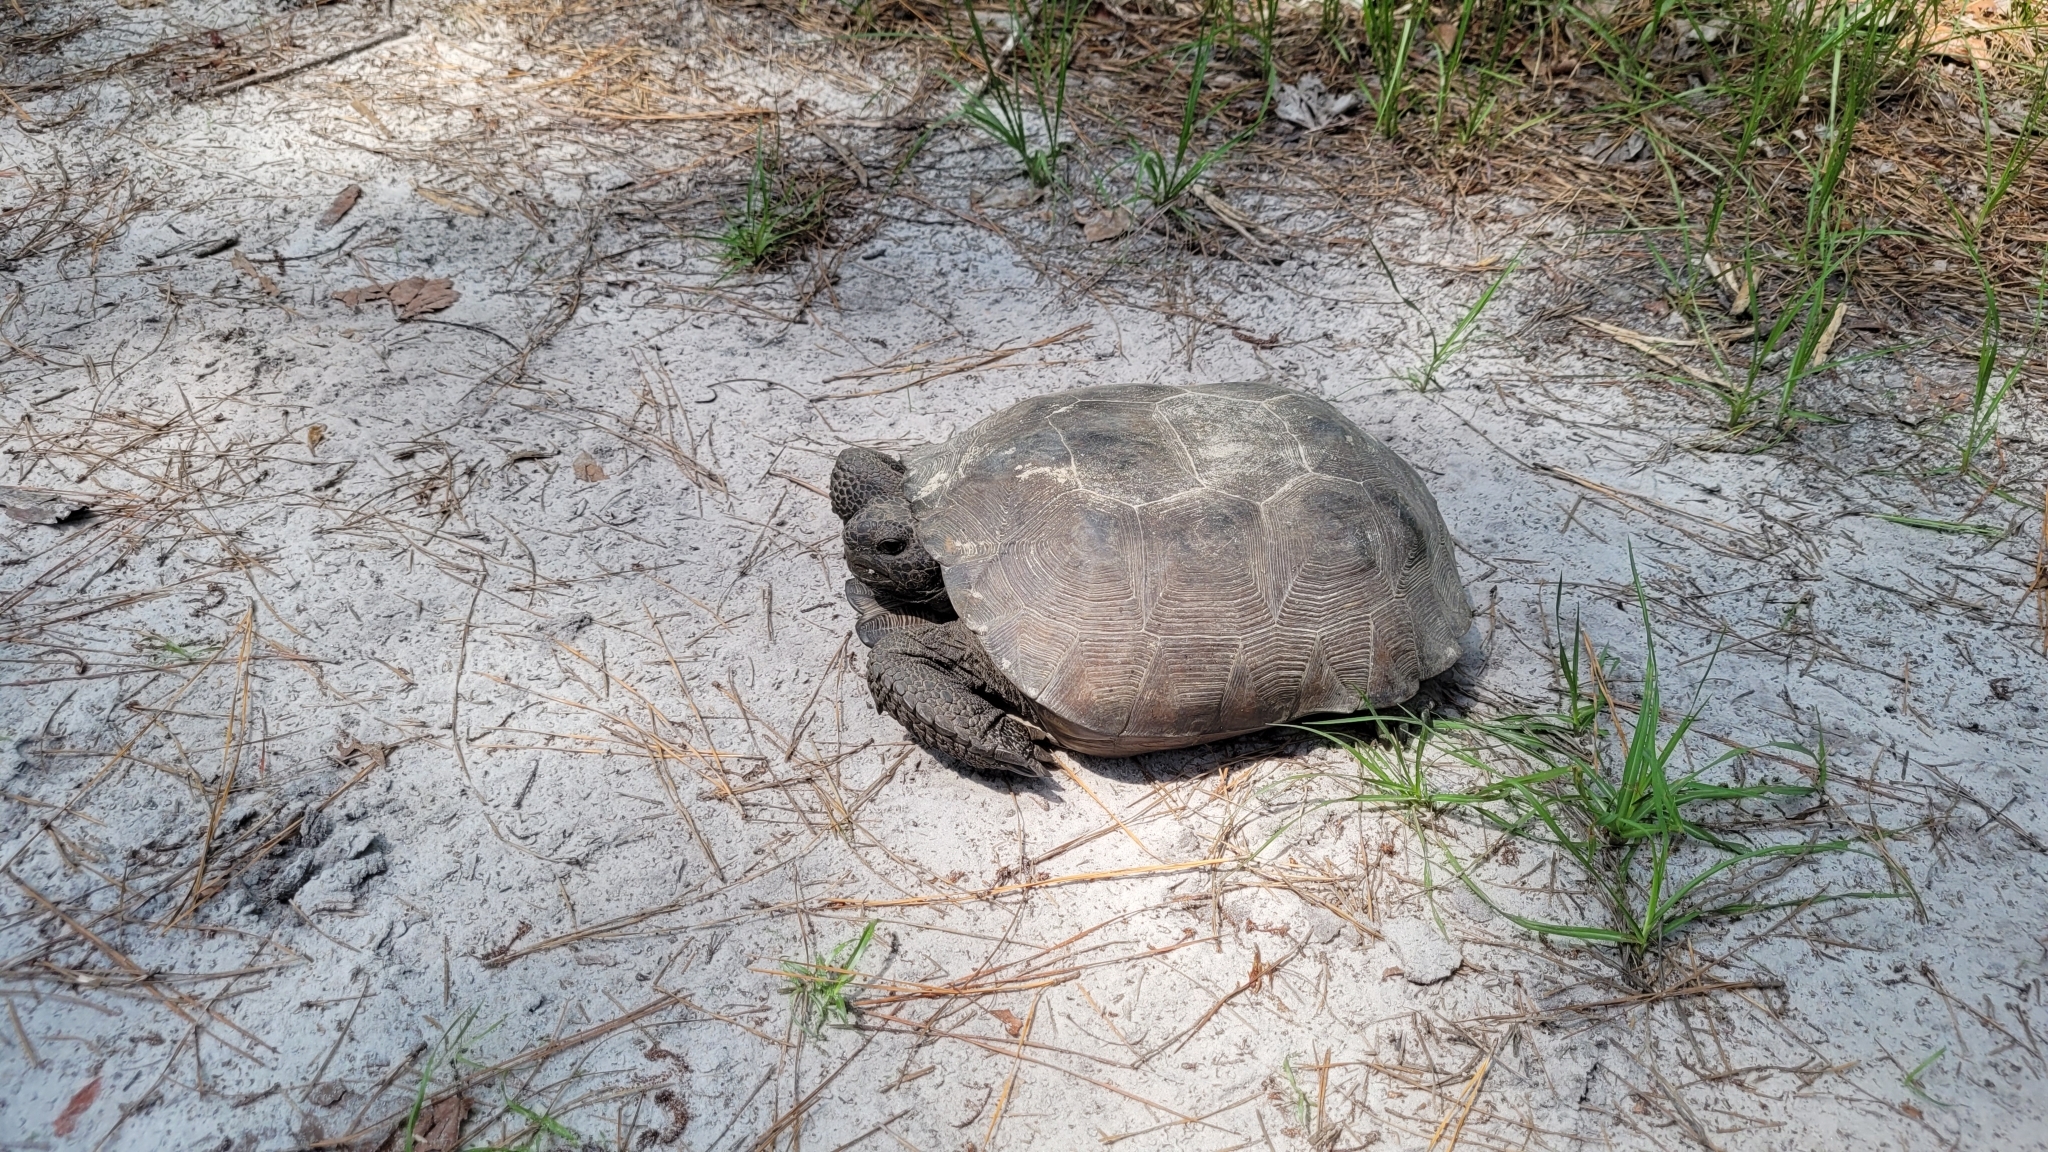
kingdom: Animalia
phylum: Chordata
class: Testudines
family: Testudinidae
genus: Gopherus
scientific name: Gopherus polyphemus
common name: Florida gopher tortoise
